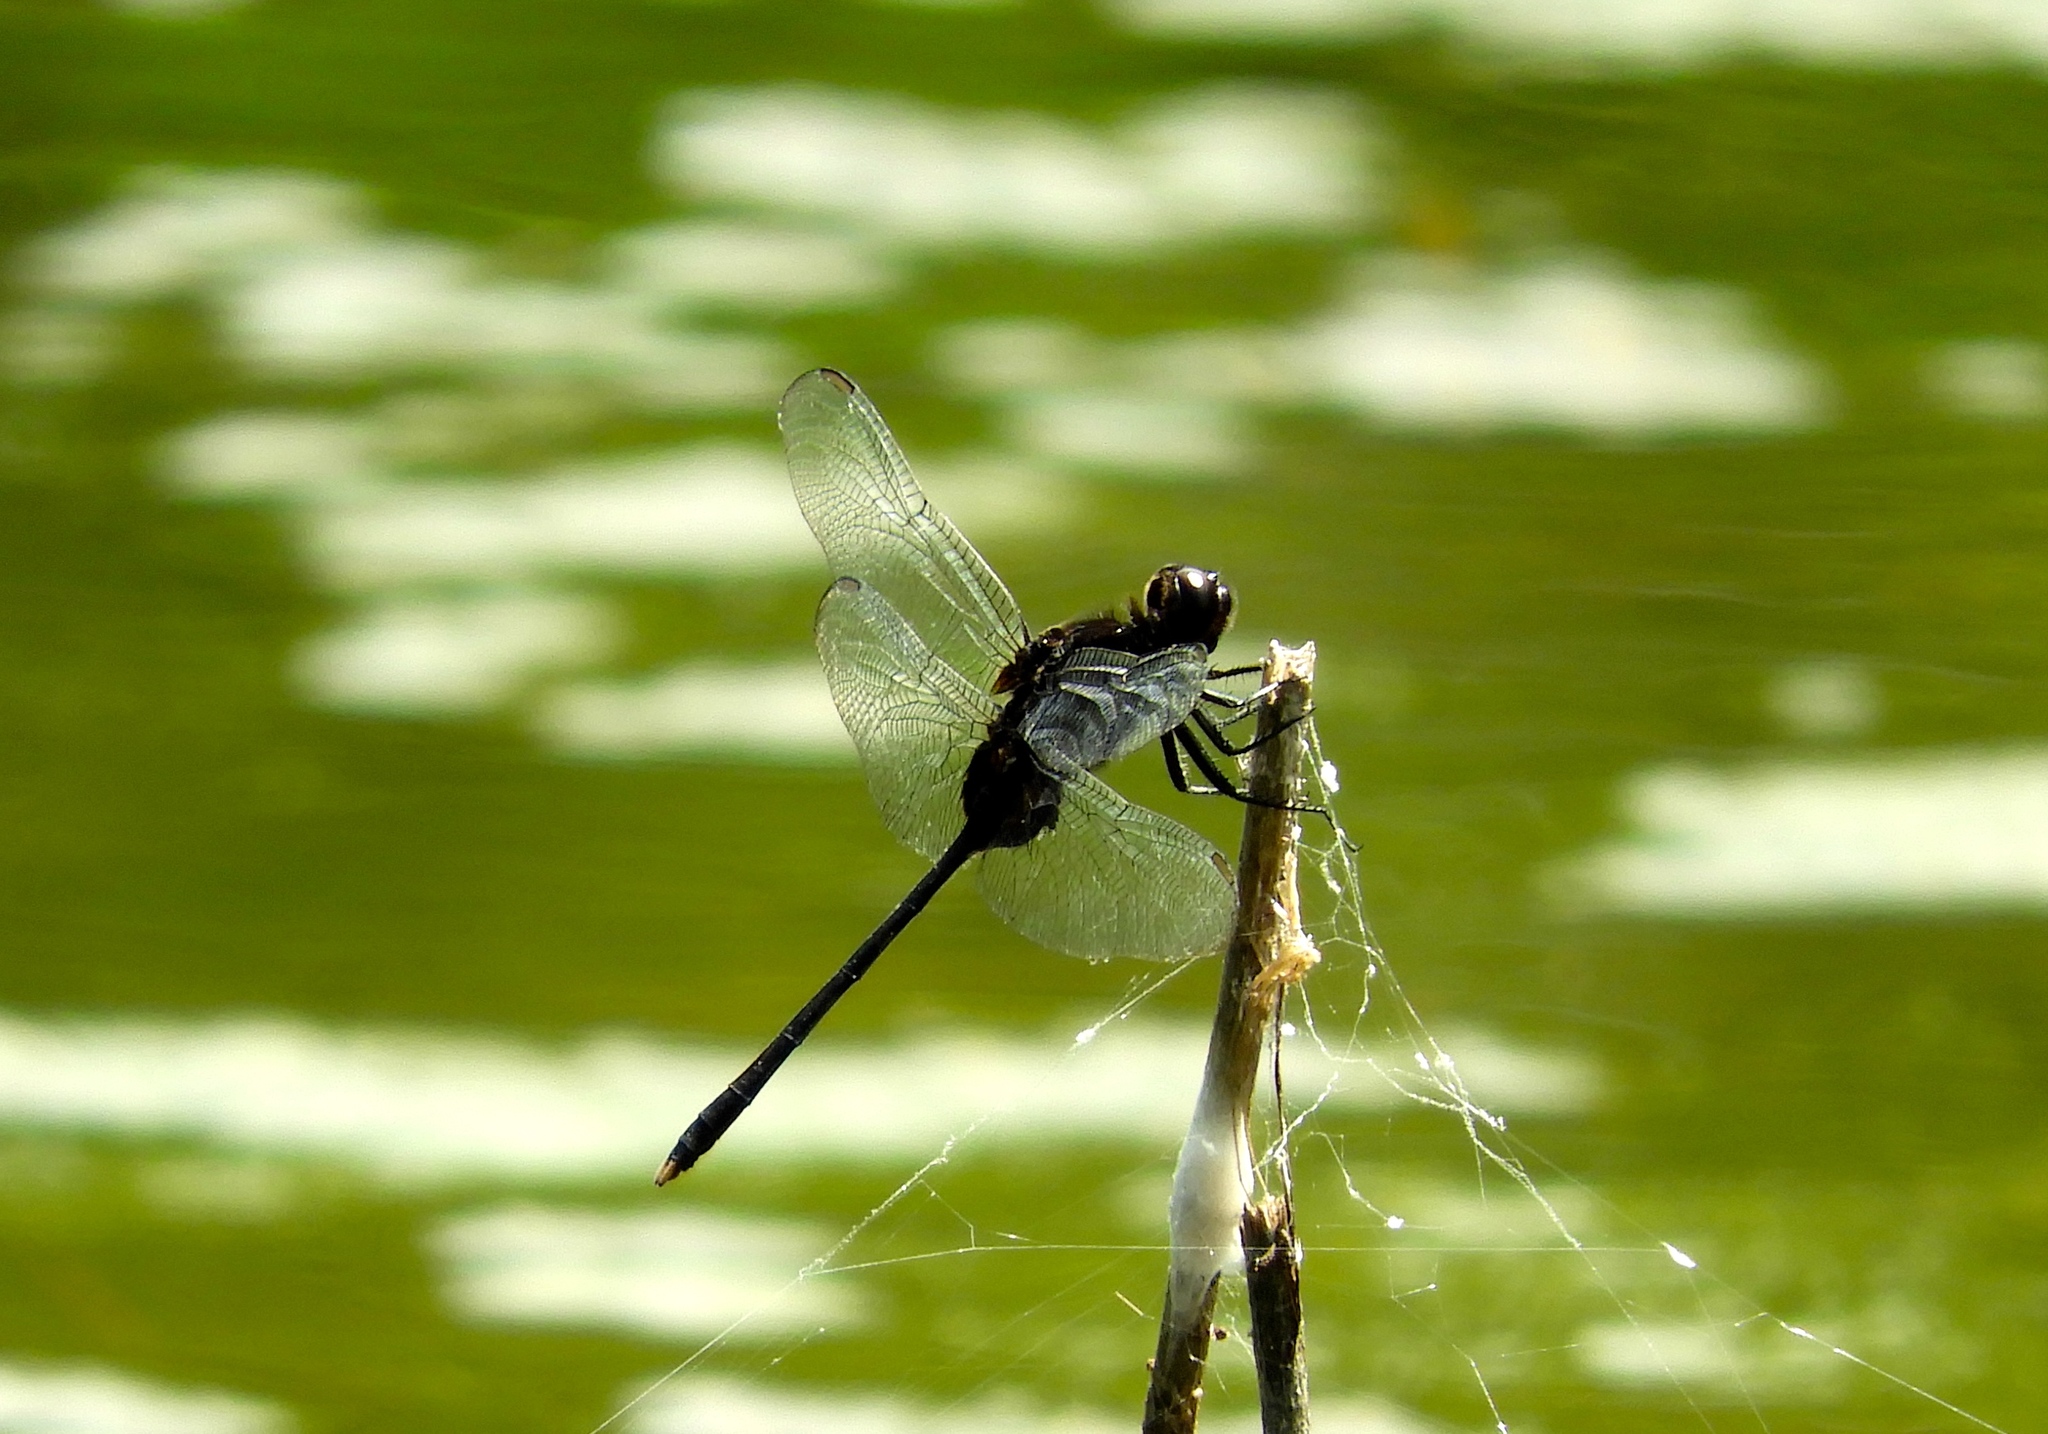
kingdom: Animalia
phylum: Arthropoda
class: Insecta
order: Odonata
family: Libellulidae
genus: Erythemis
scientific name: Erythemis plebeja
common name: Pin-tailed pondhawk
